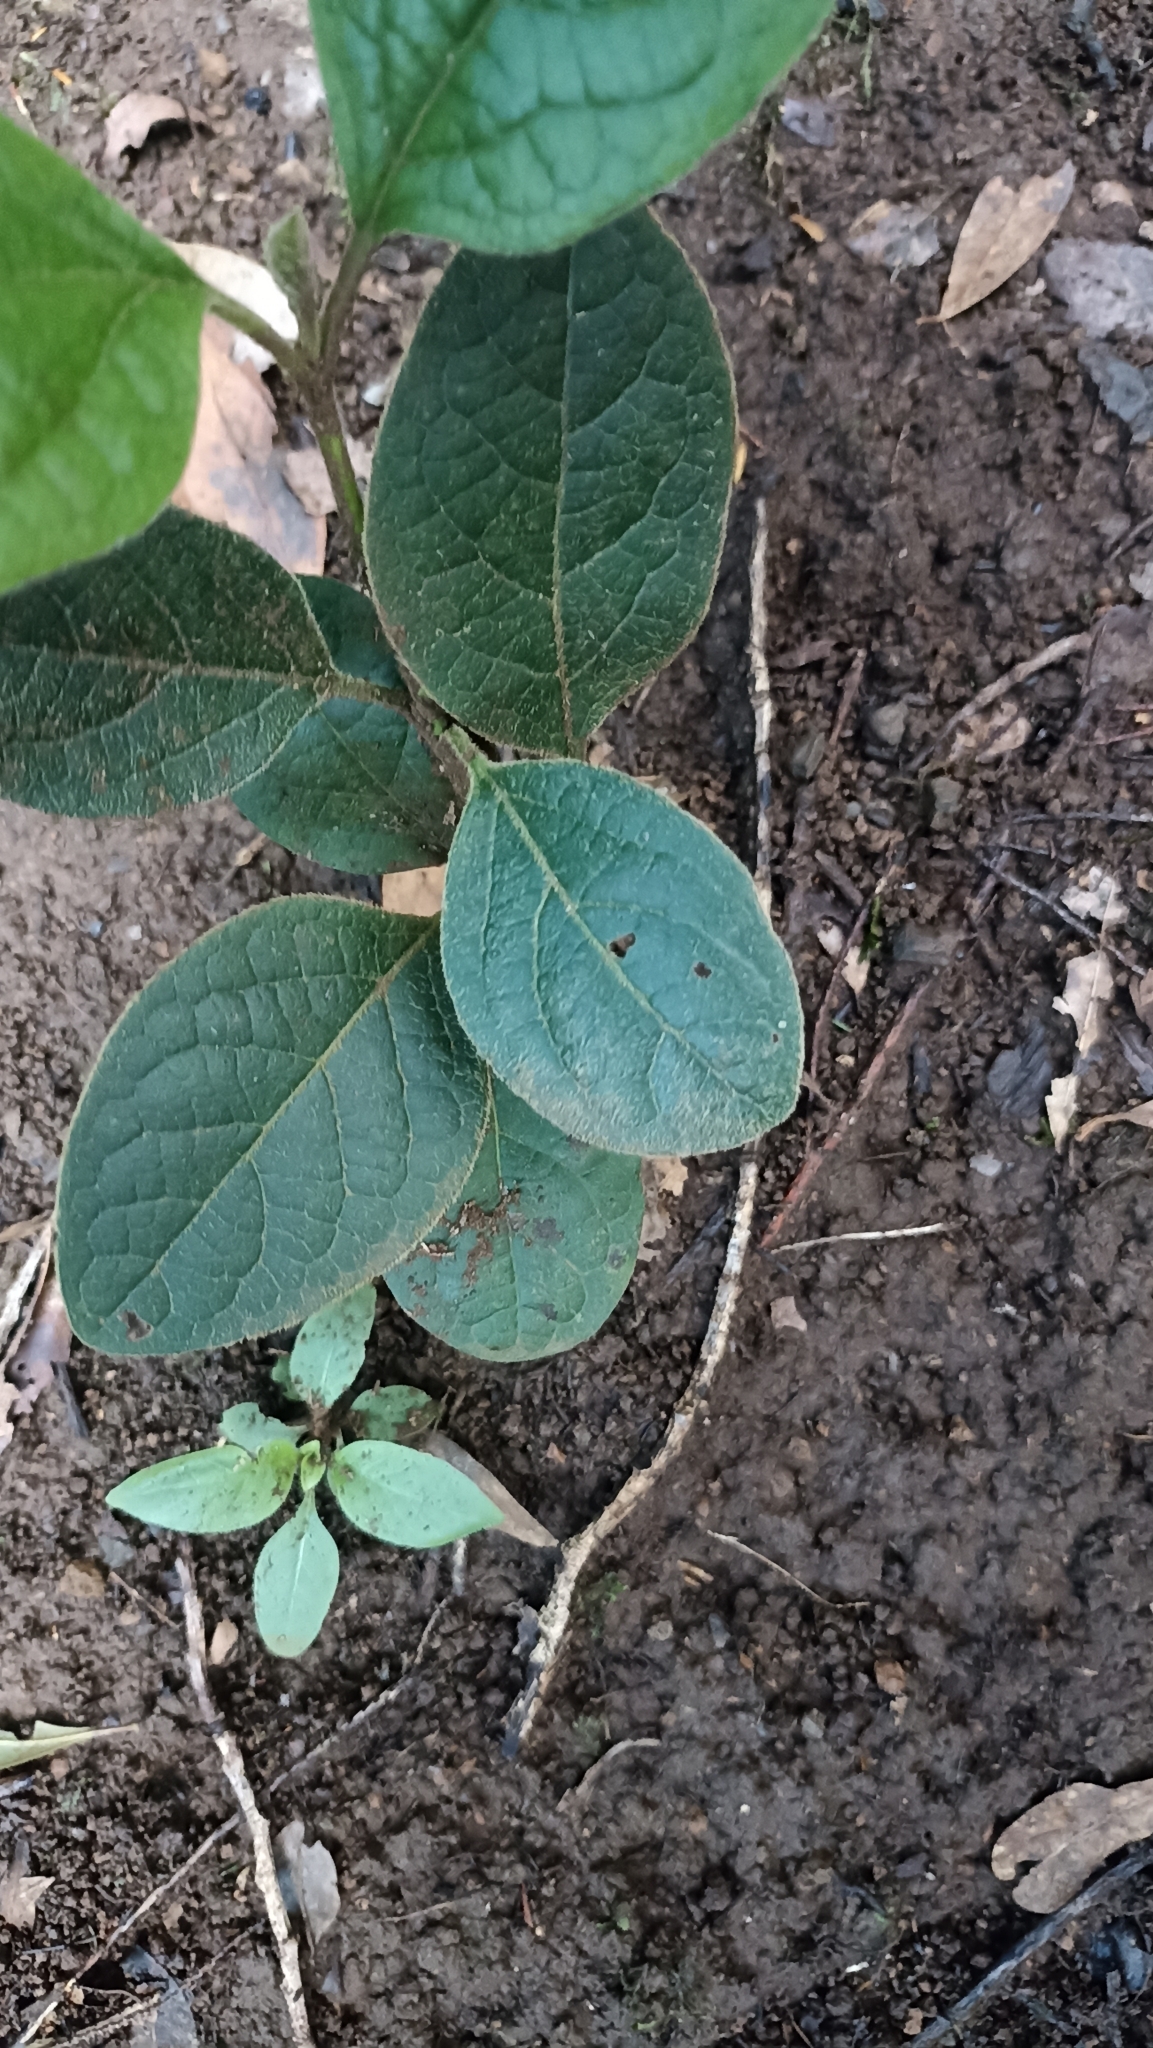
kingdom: Plantae
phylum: Tracheophyta
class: Magnoliopsida
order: Dipsacales
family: Viburnaceae
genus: Viburnum
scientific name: Viburnum rugosum
